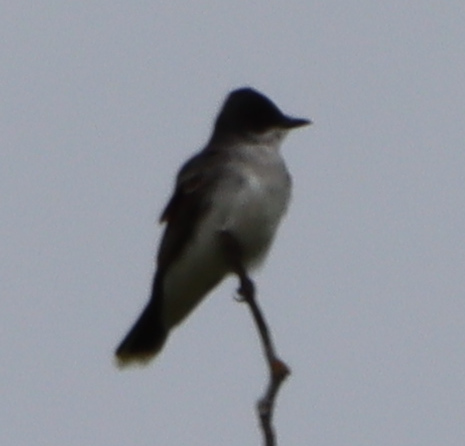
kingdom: Animalia
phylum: Chordata
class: Aves
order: Passeriformes
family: Tyrannidae
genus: Tyrannus
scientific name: Tyrannus tyrannus
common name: Eastern kingbird
